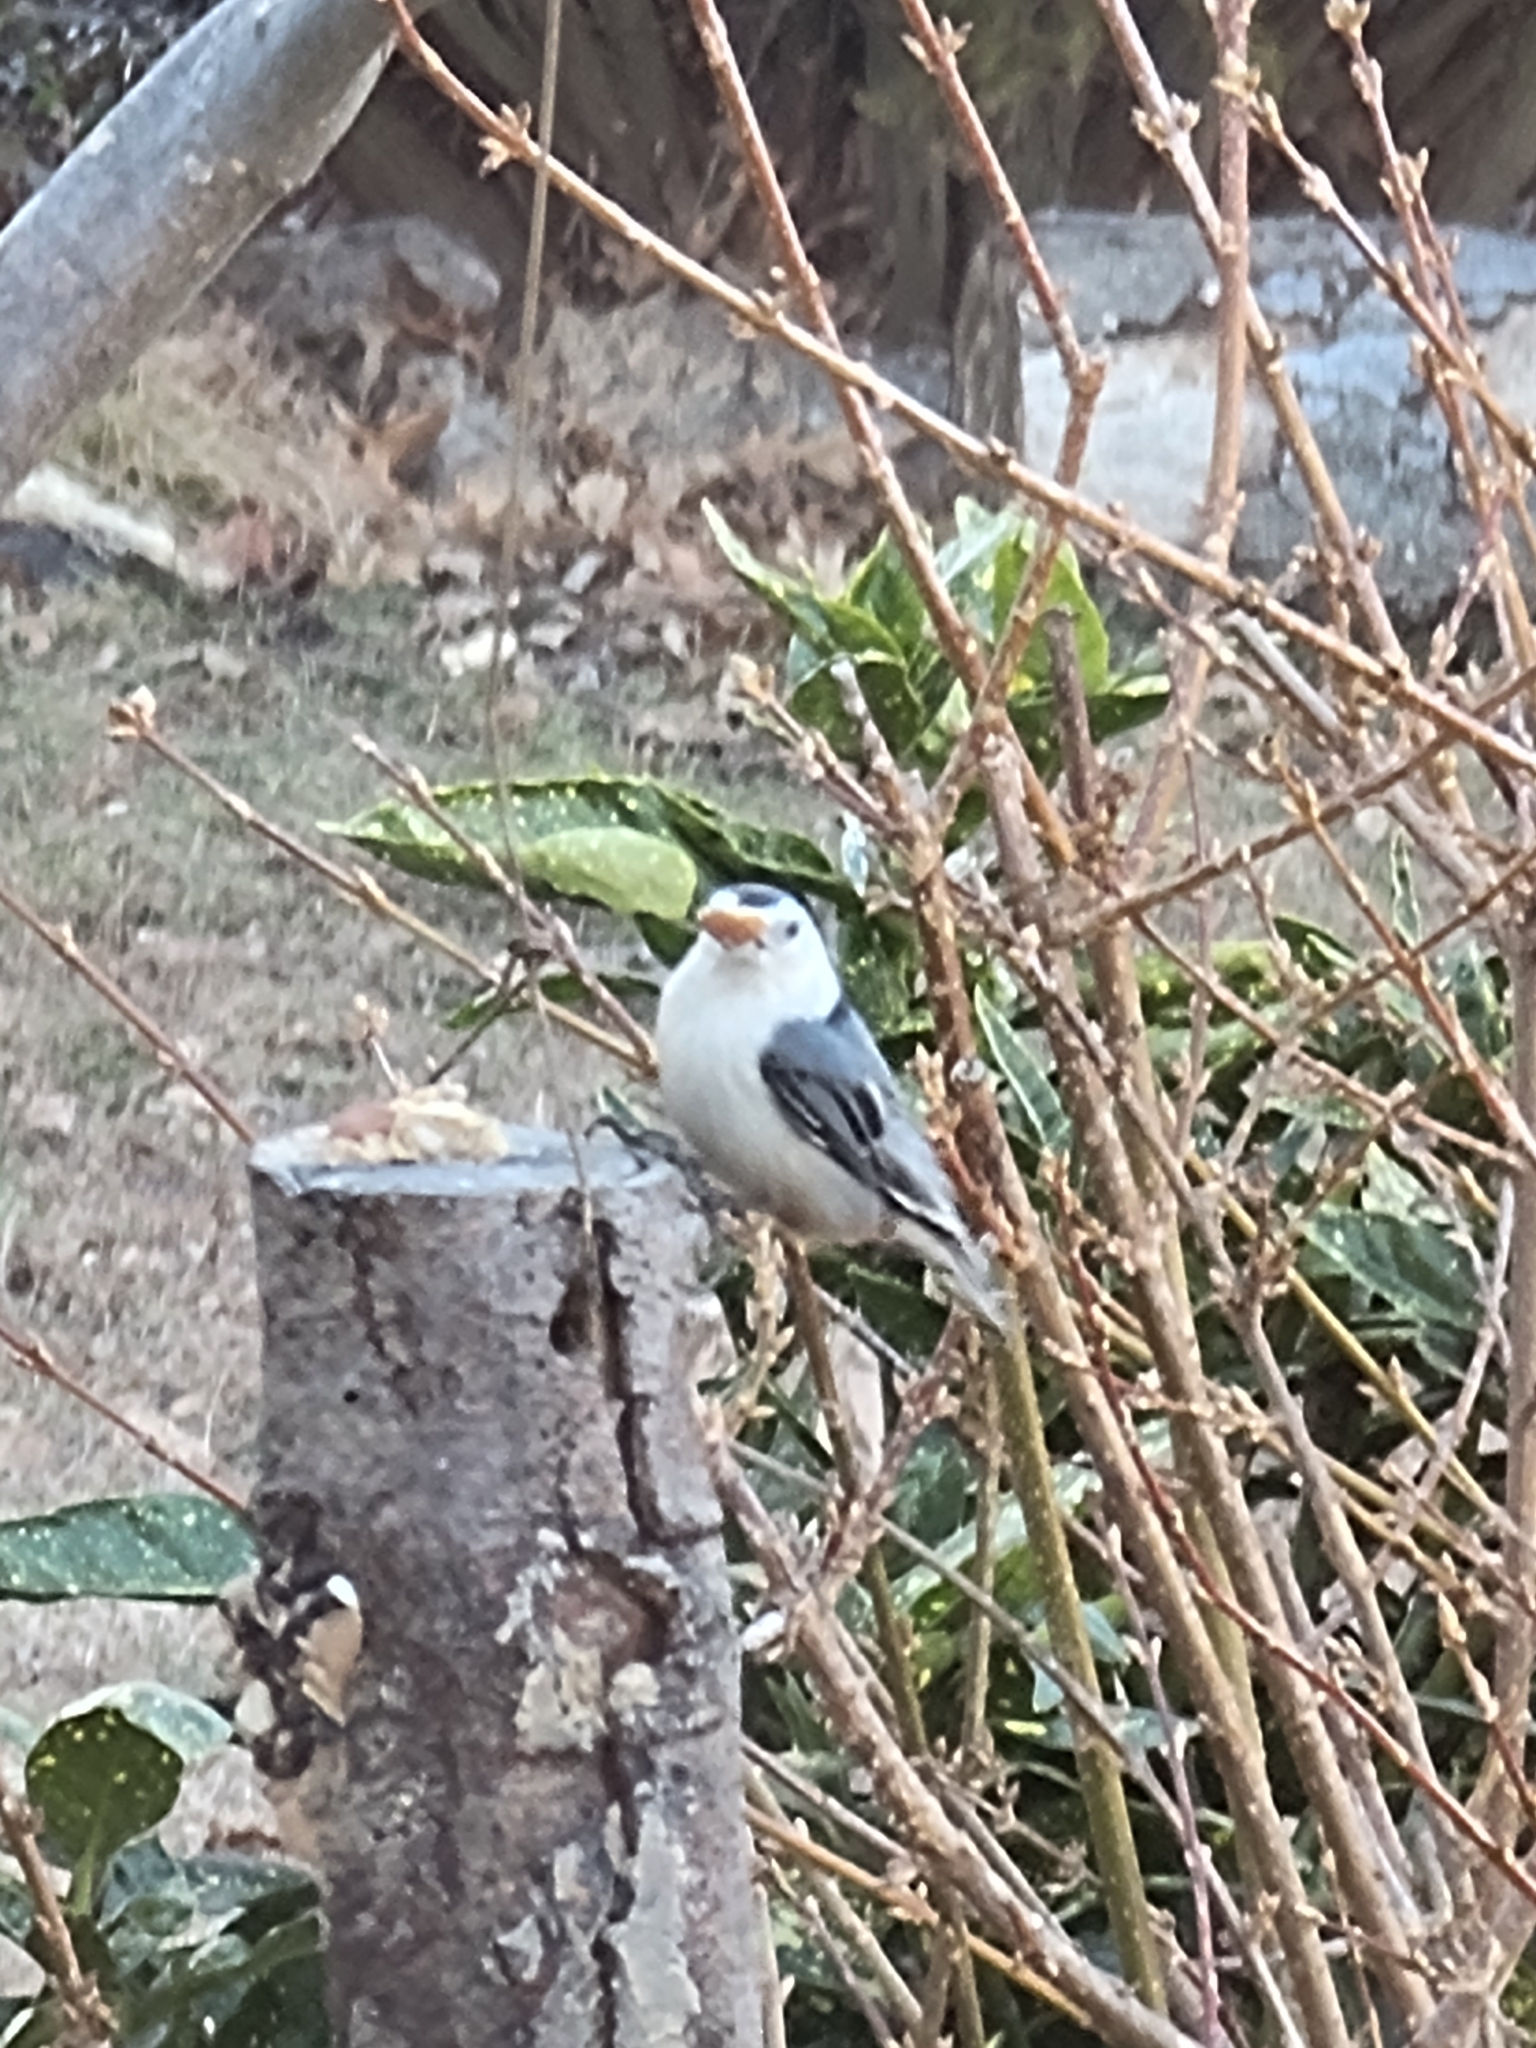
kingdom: Animalia
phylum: Chordata
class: Aves
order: Passeriformes
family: Sittidae
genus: Sitta
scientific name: Sitta carolinensis
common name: White-breasted nuthatch
